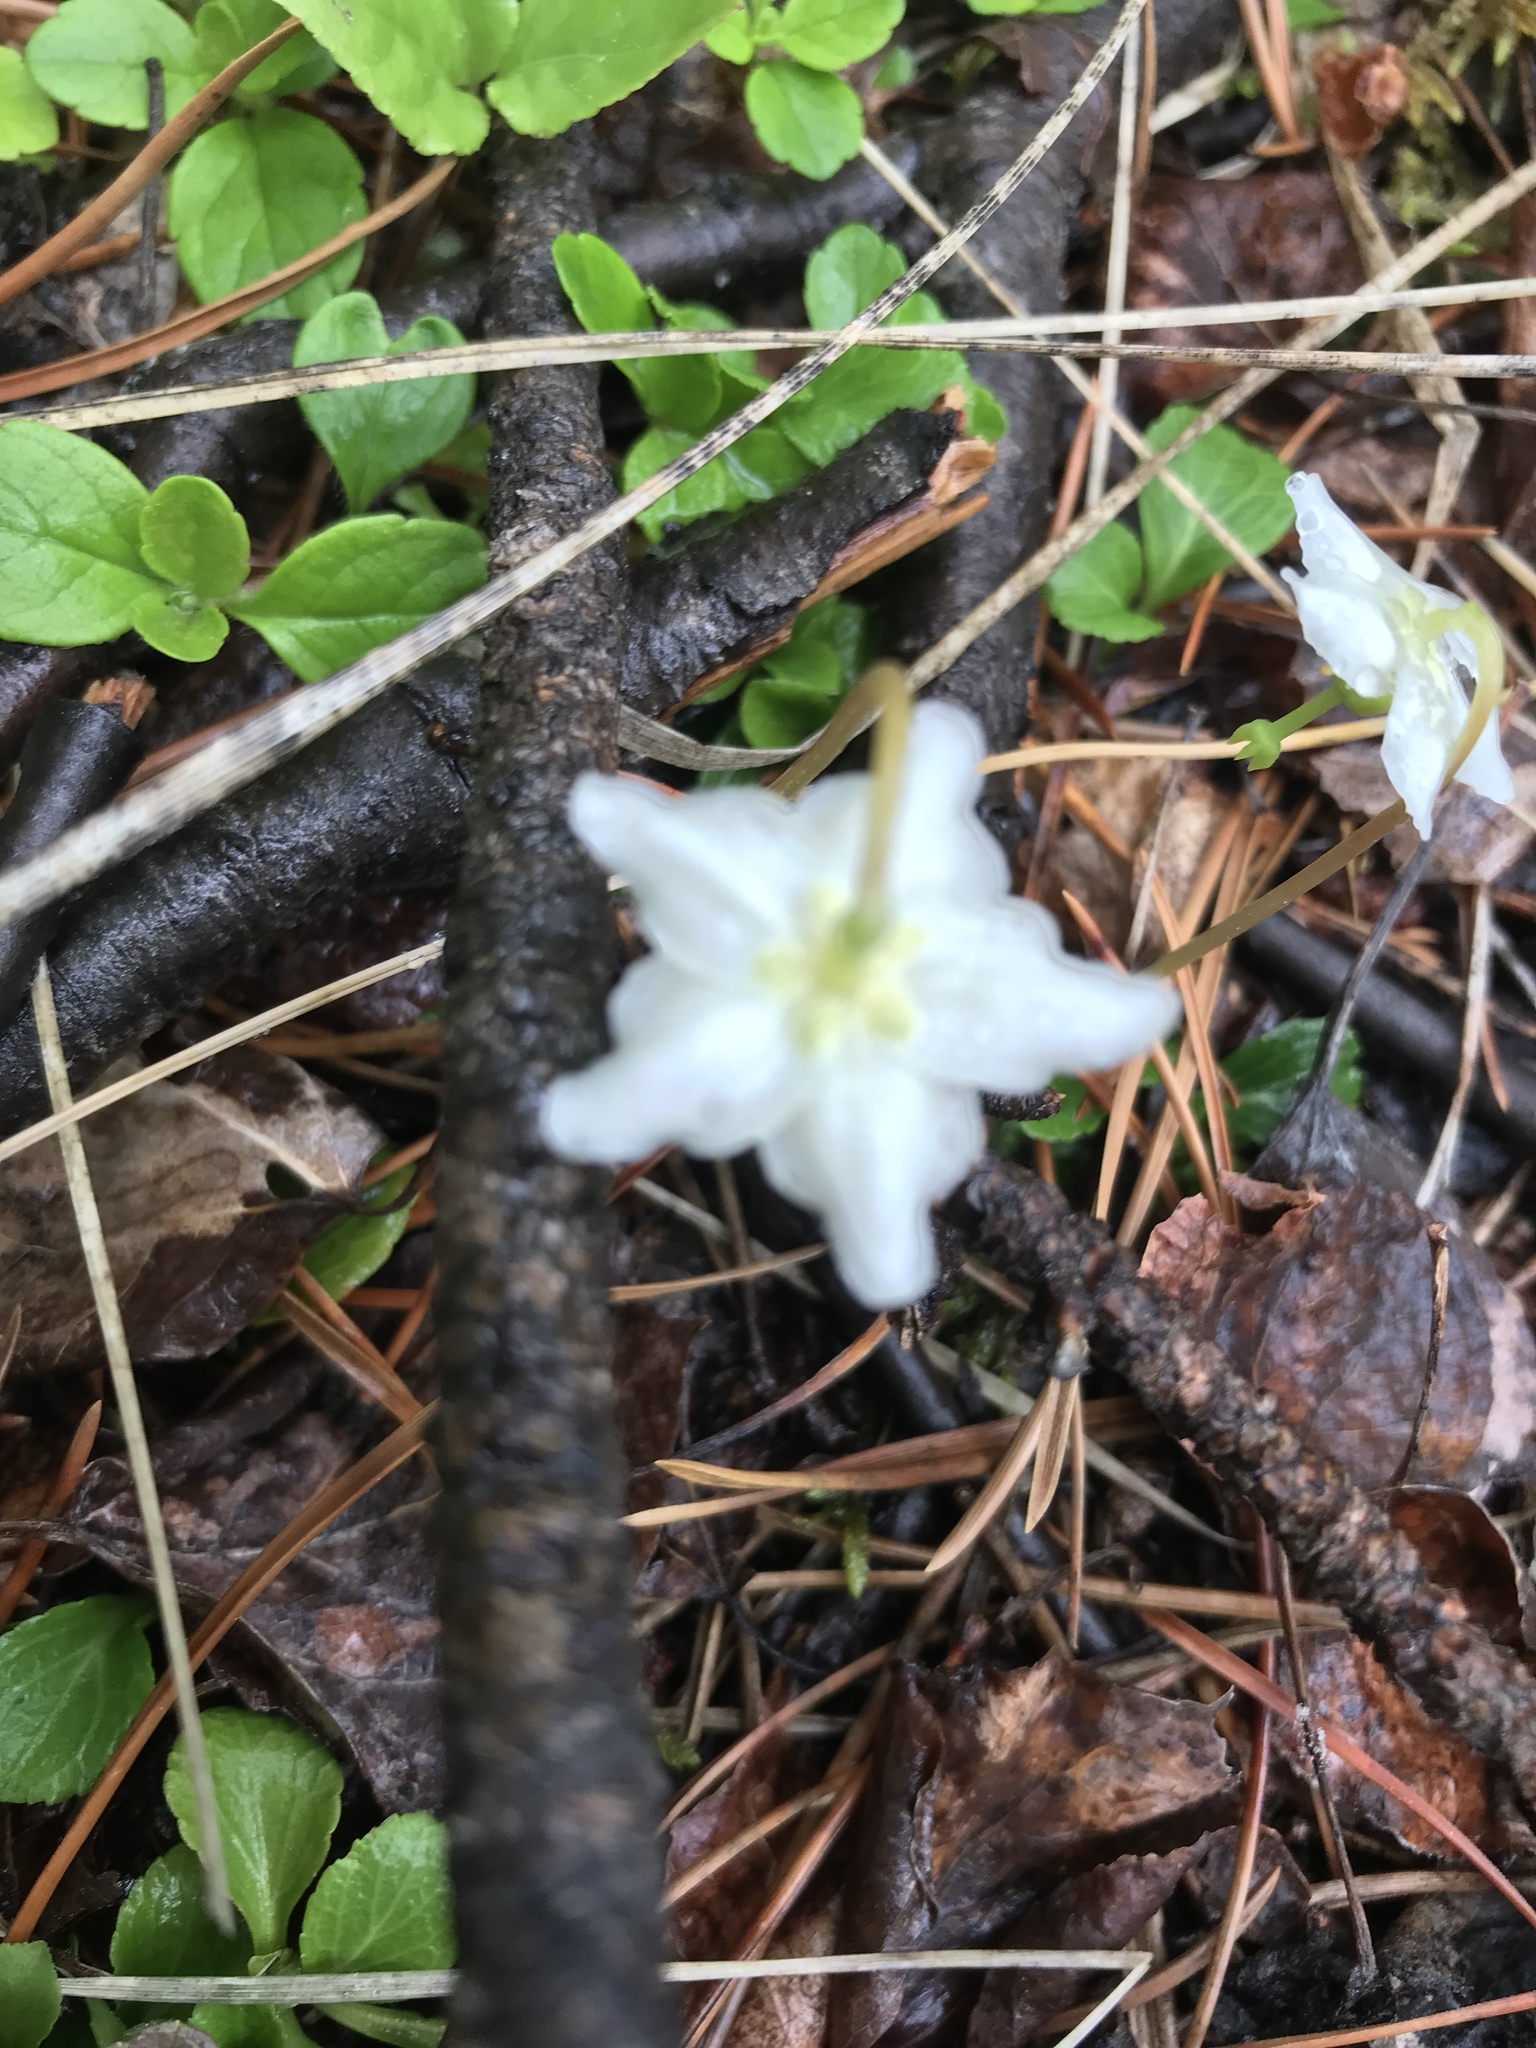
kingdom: Plantae
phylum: Tracheophyta
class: Magnoliopsida
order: Ericales
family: Ericaceae
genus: Moneses
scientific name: Moneses uniflora
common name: One-flowered wintergreen
